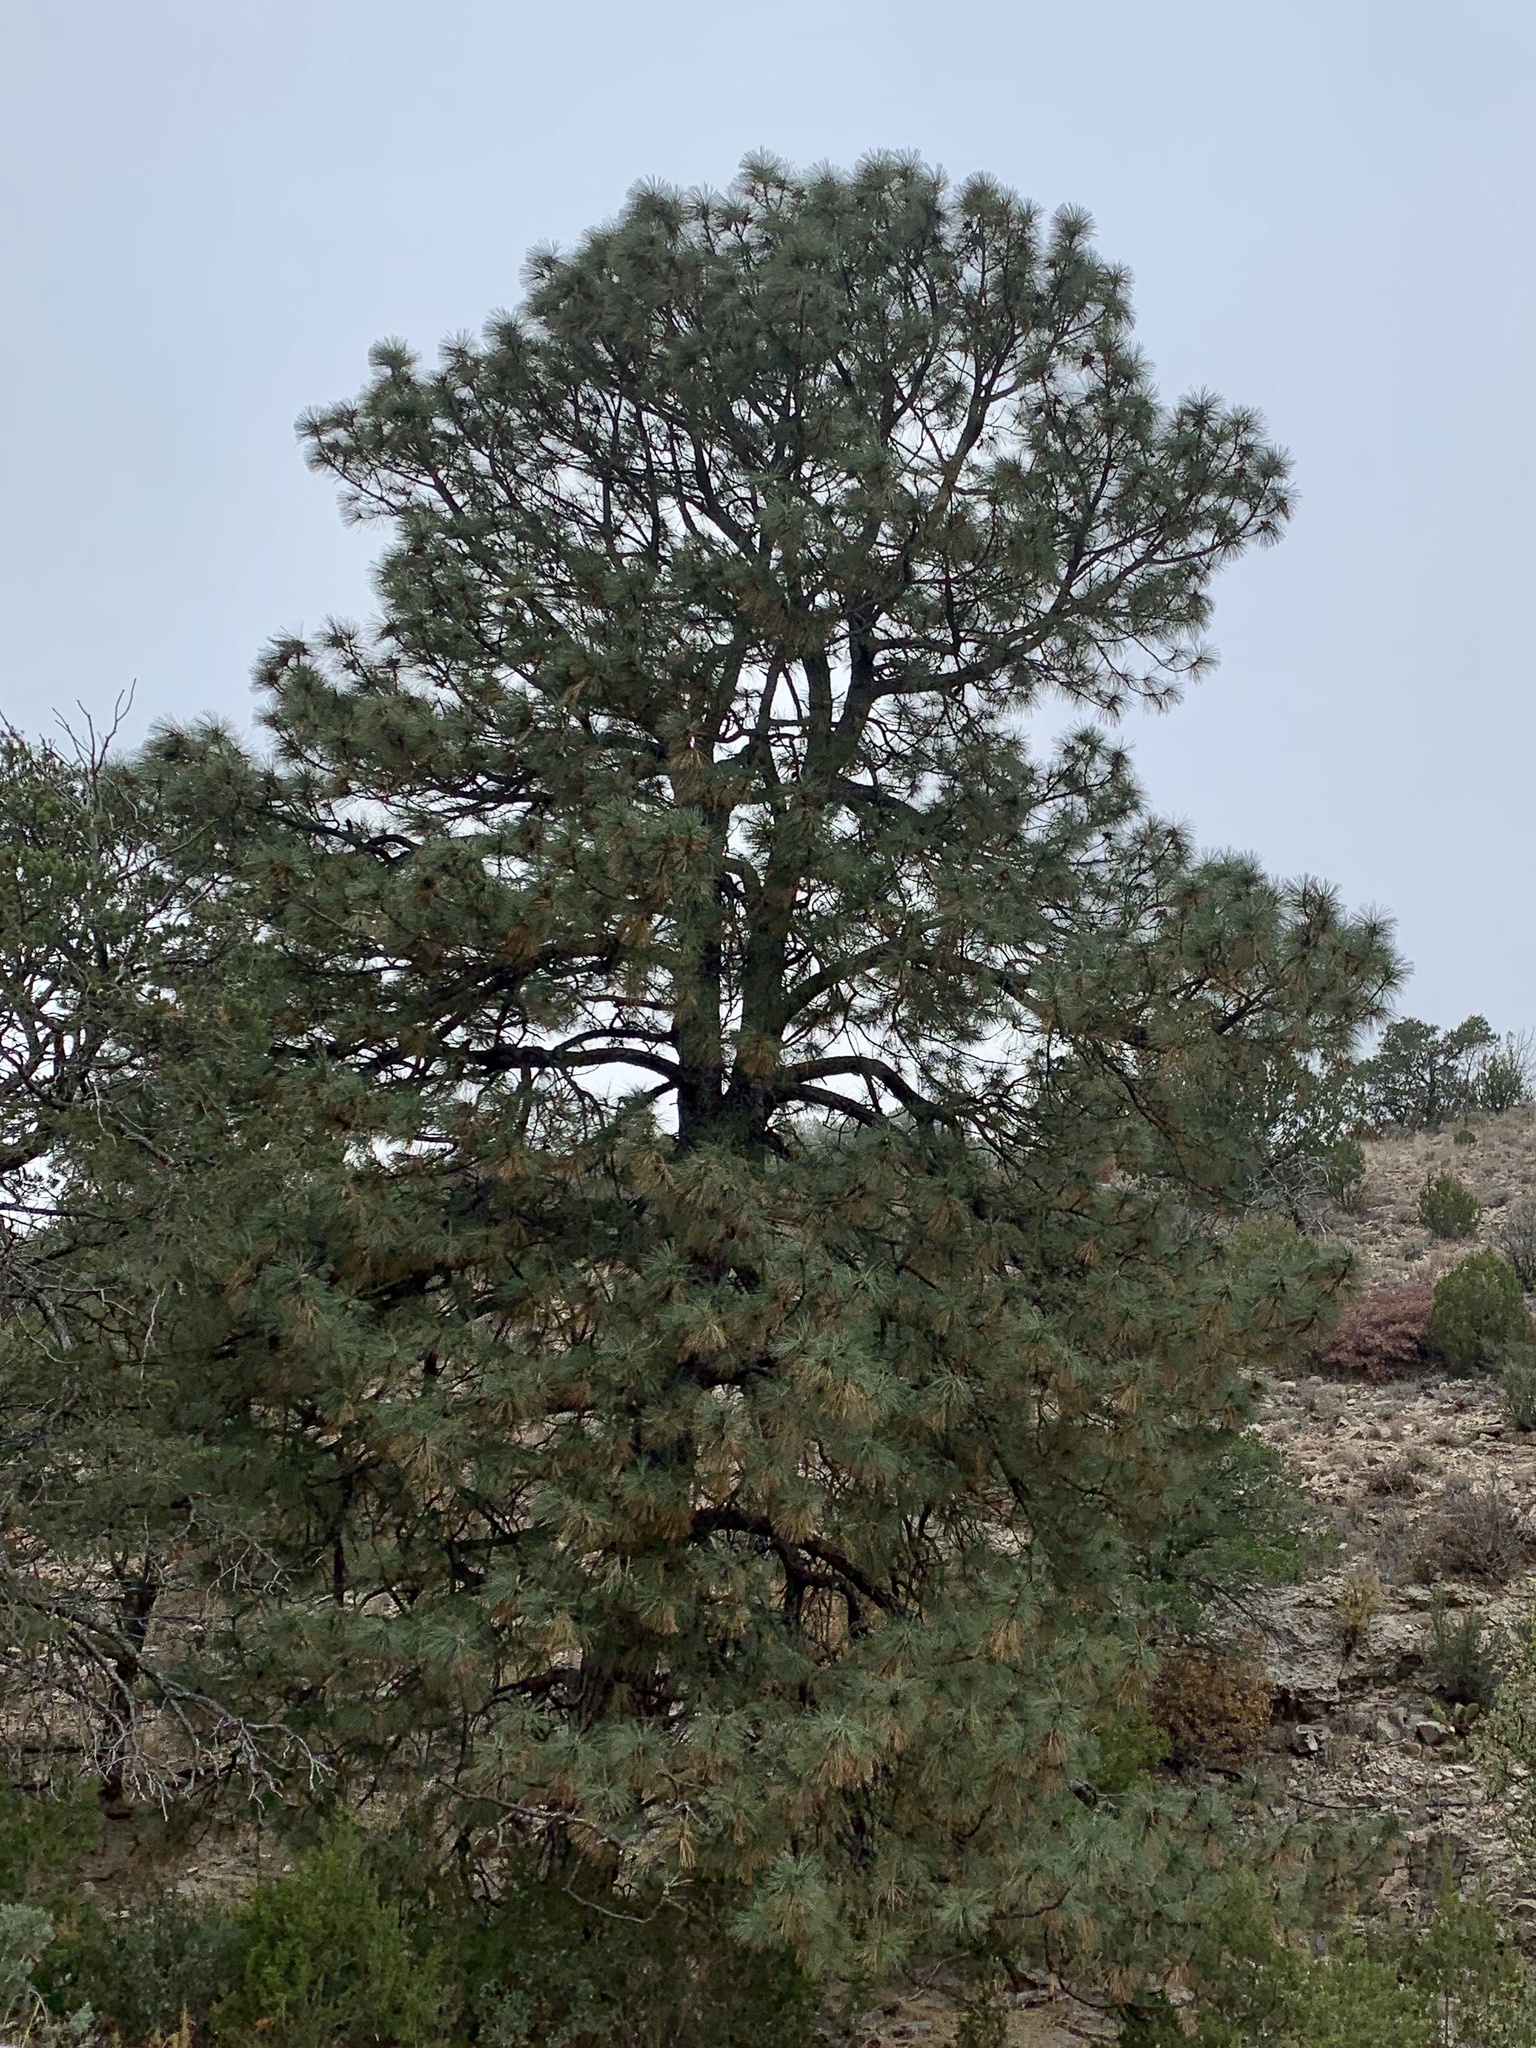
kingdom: Plantae
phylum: Tracheophyta
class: Pinopsida
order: Pinales
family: Pinaceae
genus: Pinus
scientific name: Pinus ponderosa
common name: Western yellow-pine
